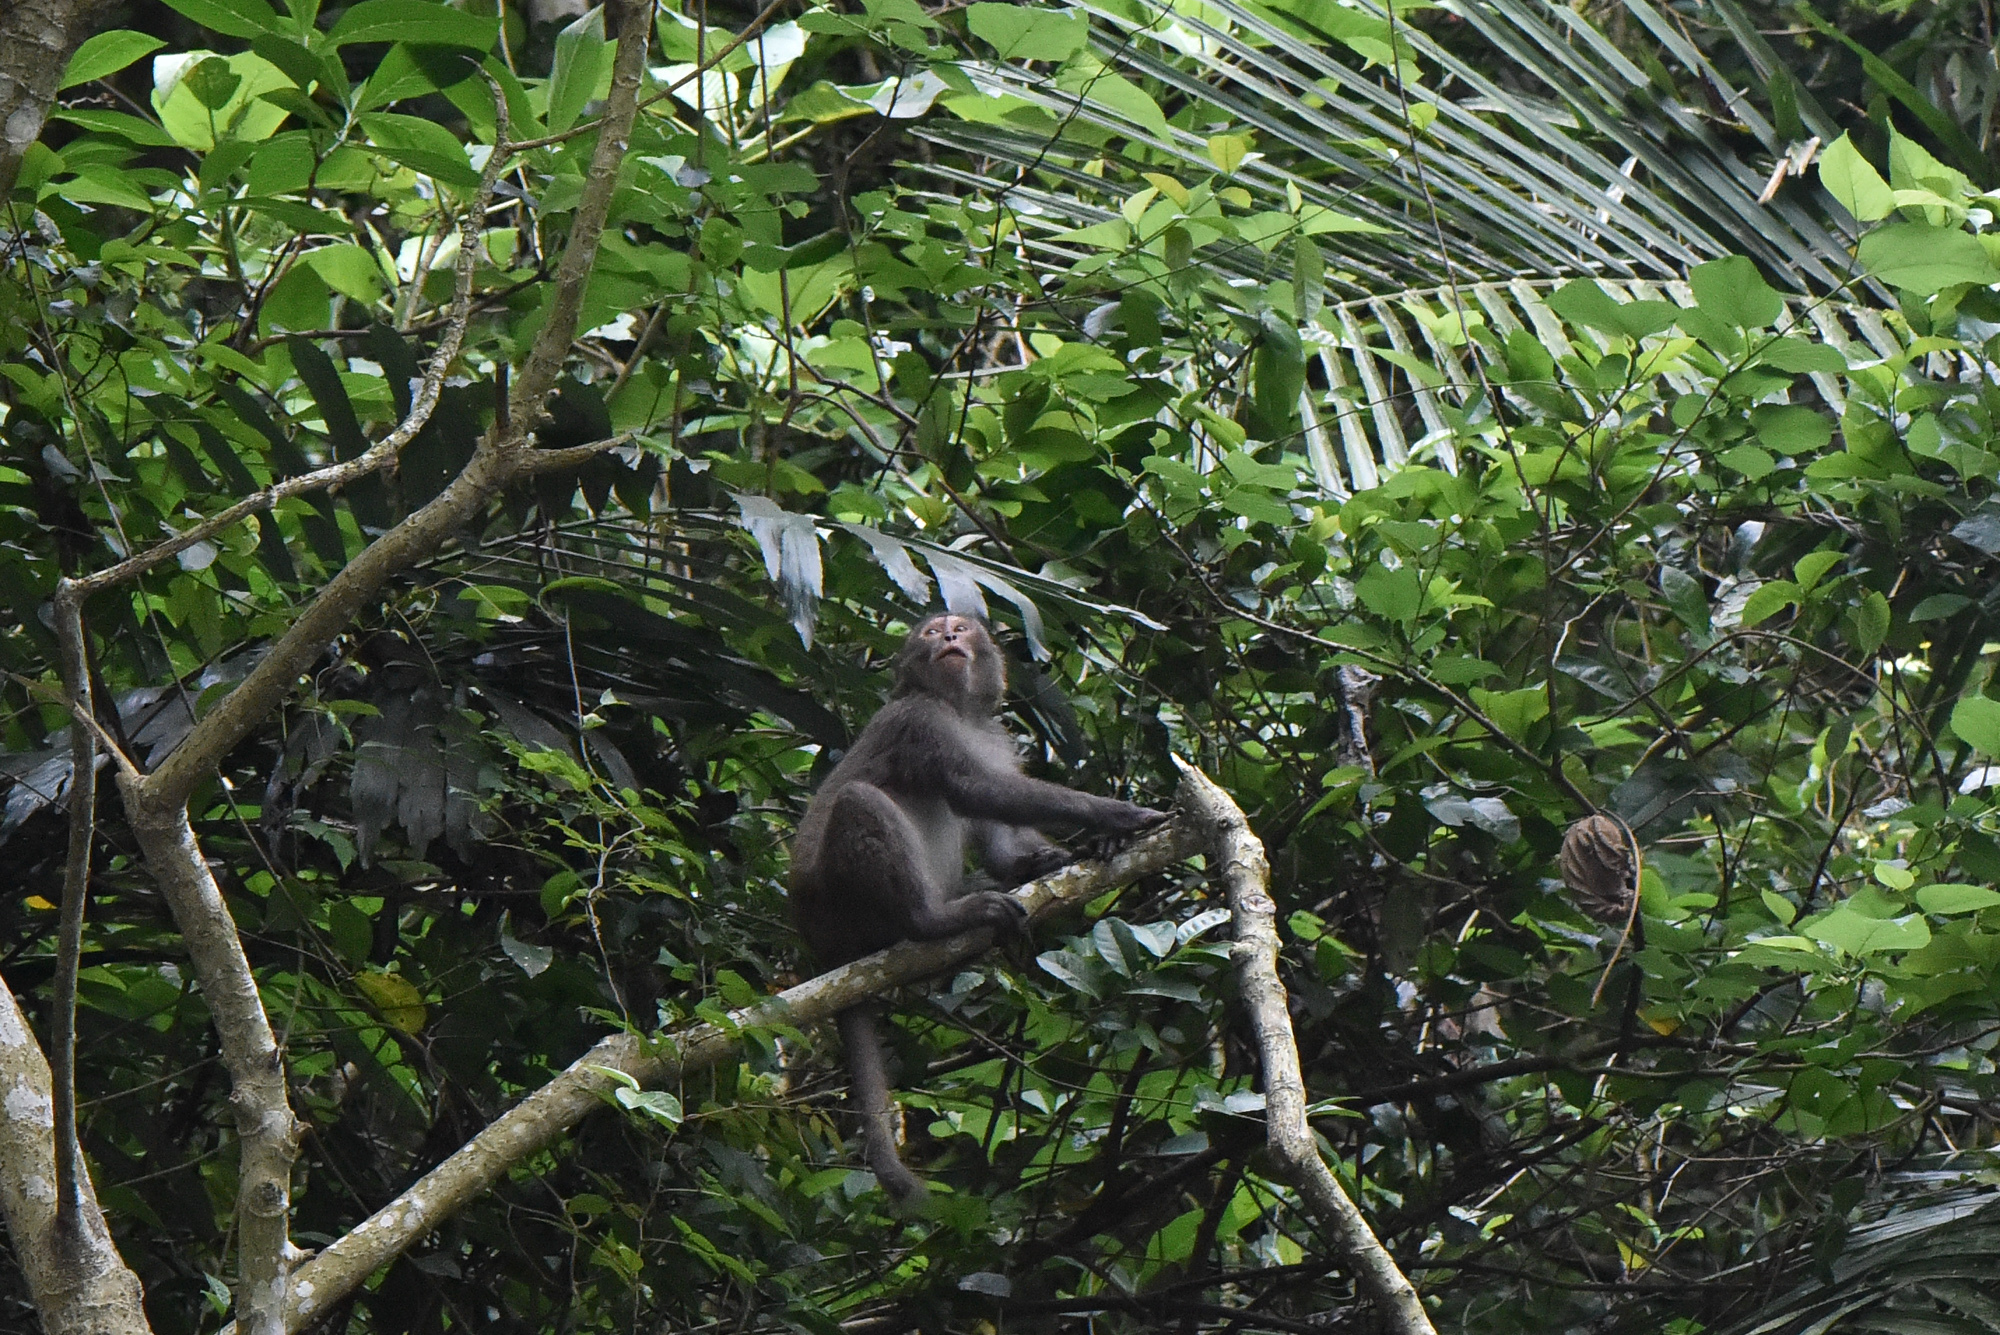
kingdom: Animalia
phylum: Chordata
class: Mammalia
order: Primates
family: Cercopithecidae
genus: Macaca
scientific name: Macaca cyclopis
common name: Formosan rock macaque
